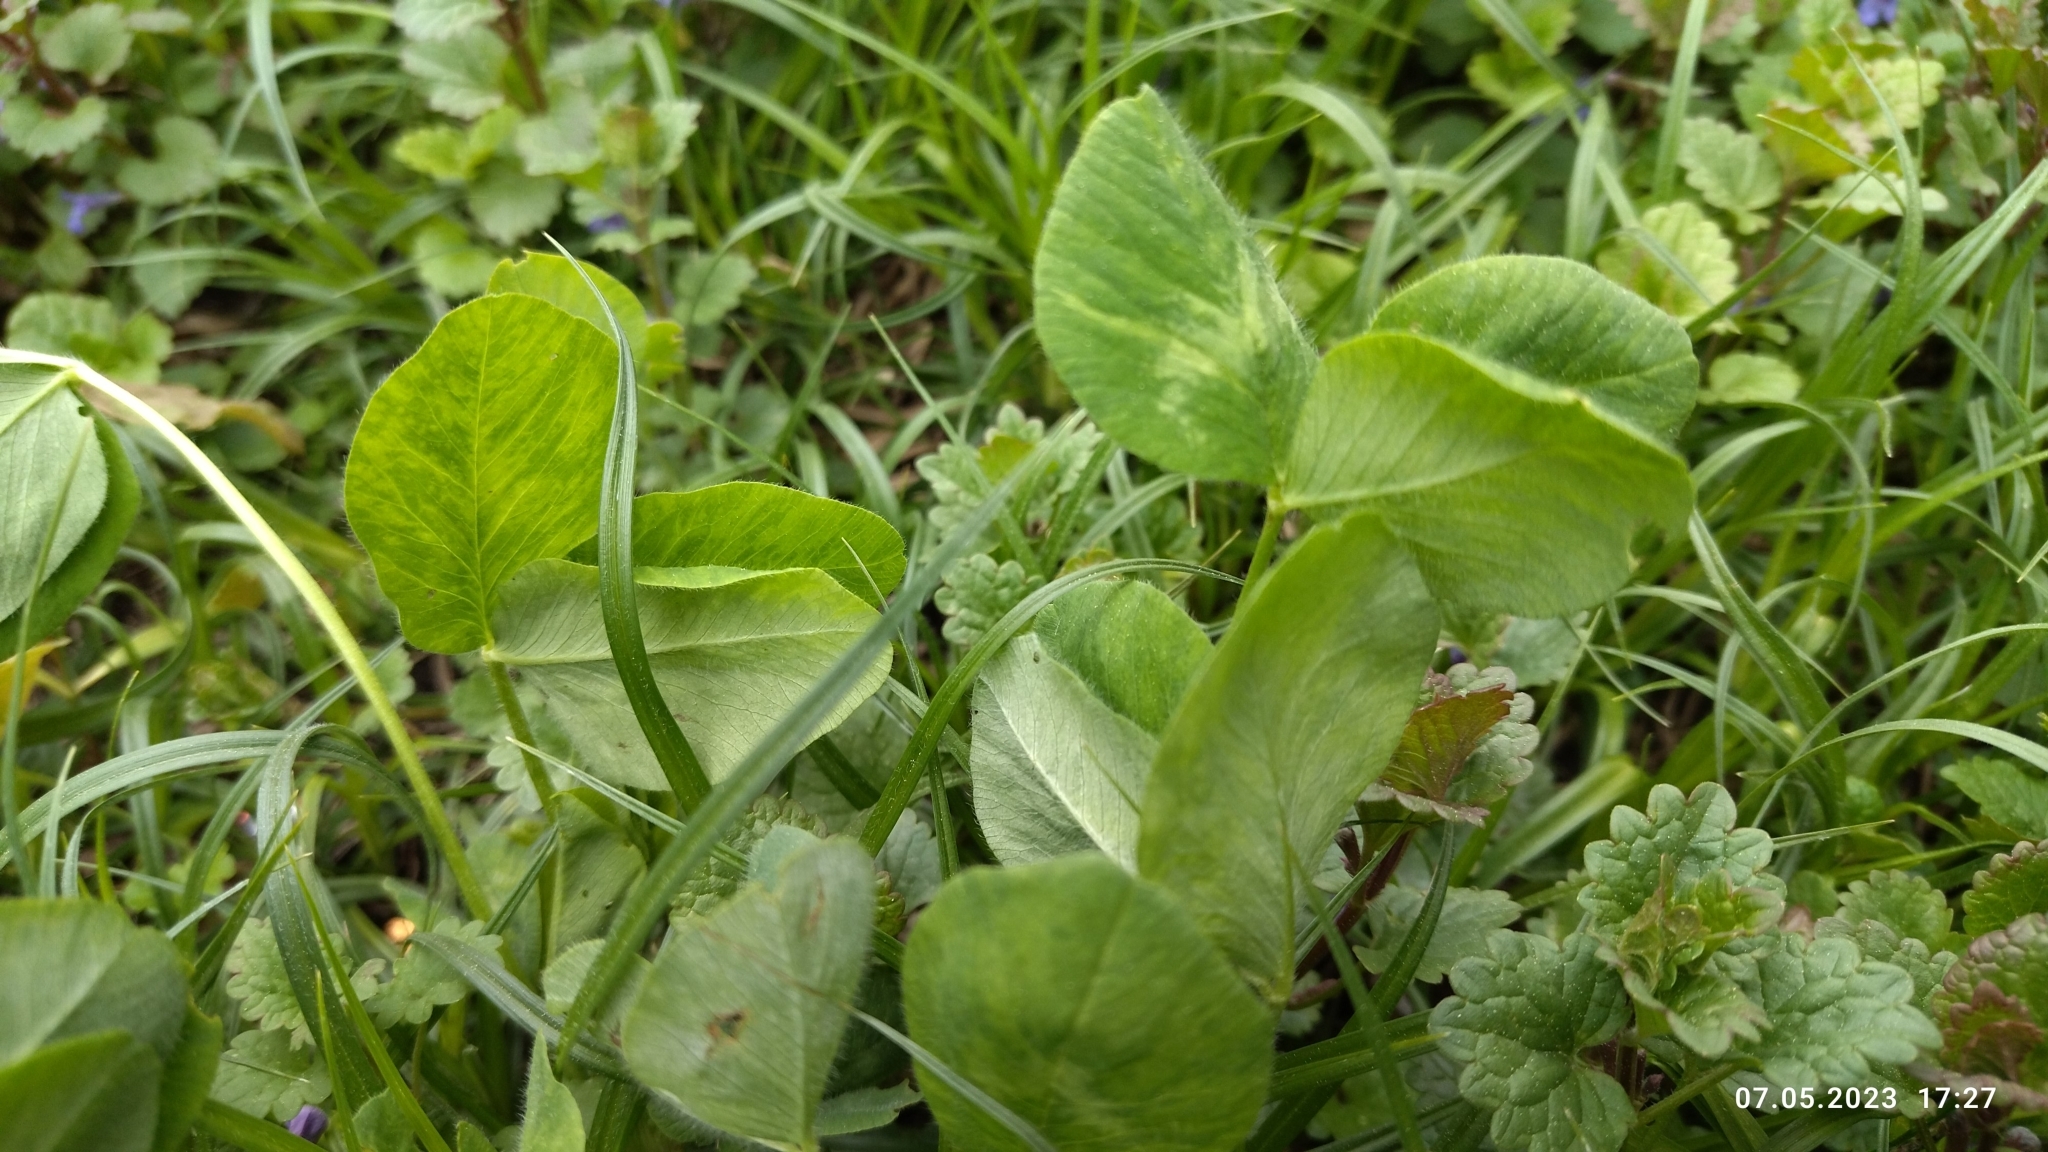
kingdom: Plantae
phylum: Tracheophyta
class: Magnoliopsida
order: Fabales
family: Fabaceae
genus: Trifolium
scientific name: Trifolium pratense
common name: Red clover
